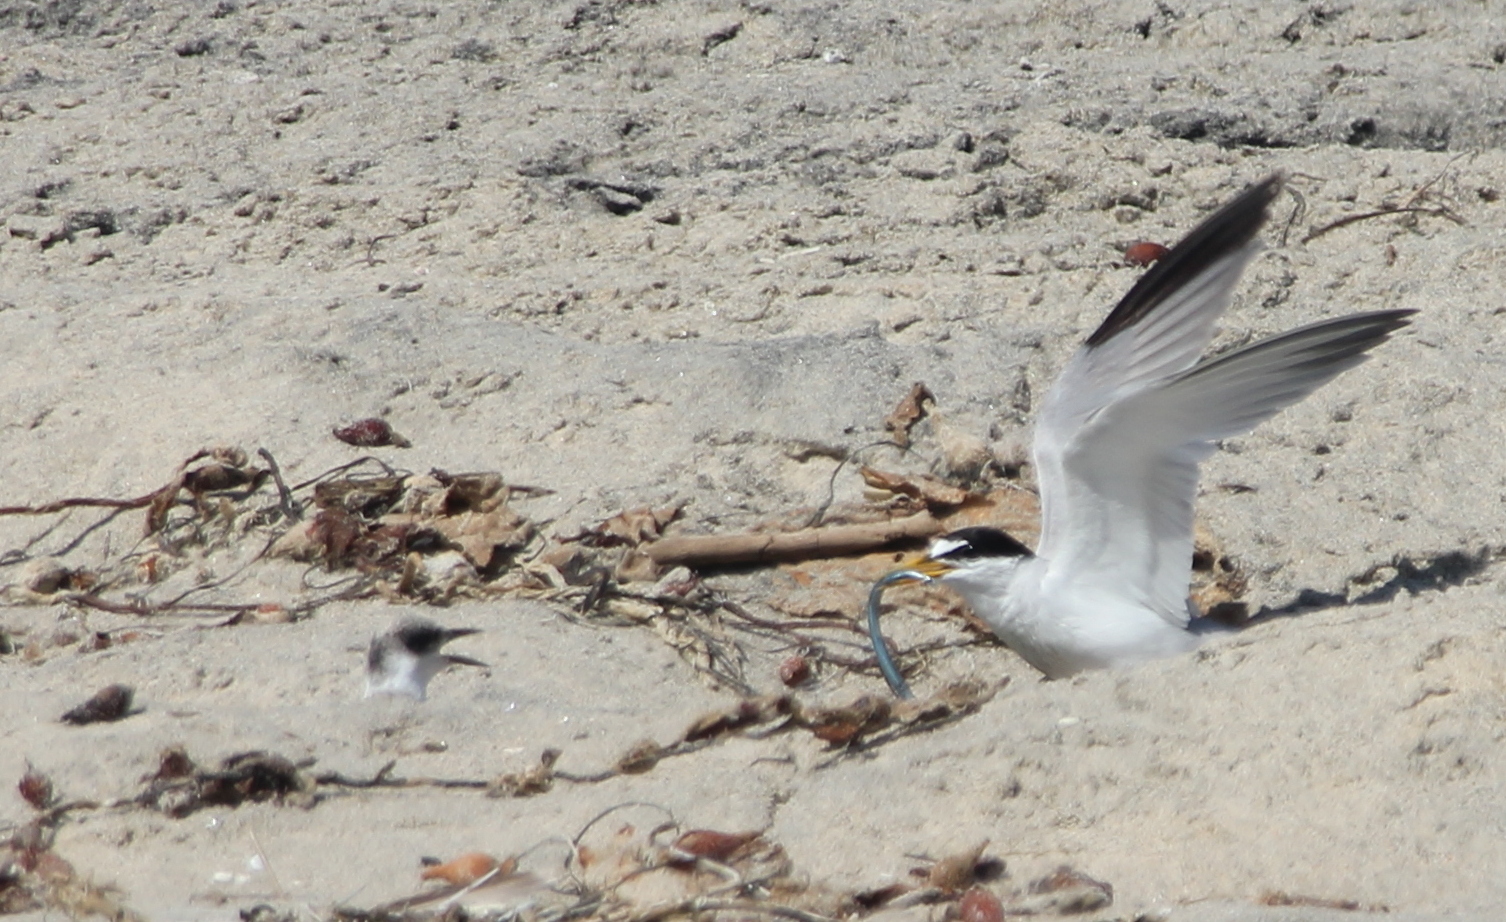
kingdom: Animalia
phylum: Chordata
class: Aves
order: Charadriiformes
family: Laridae
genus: Sternula
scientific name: Sternula antillarum
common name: Least tern
